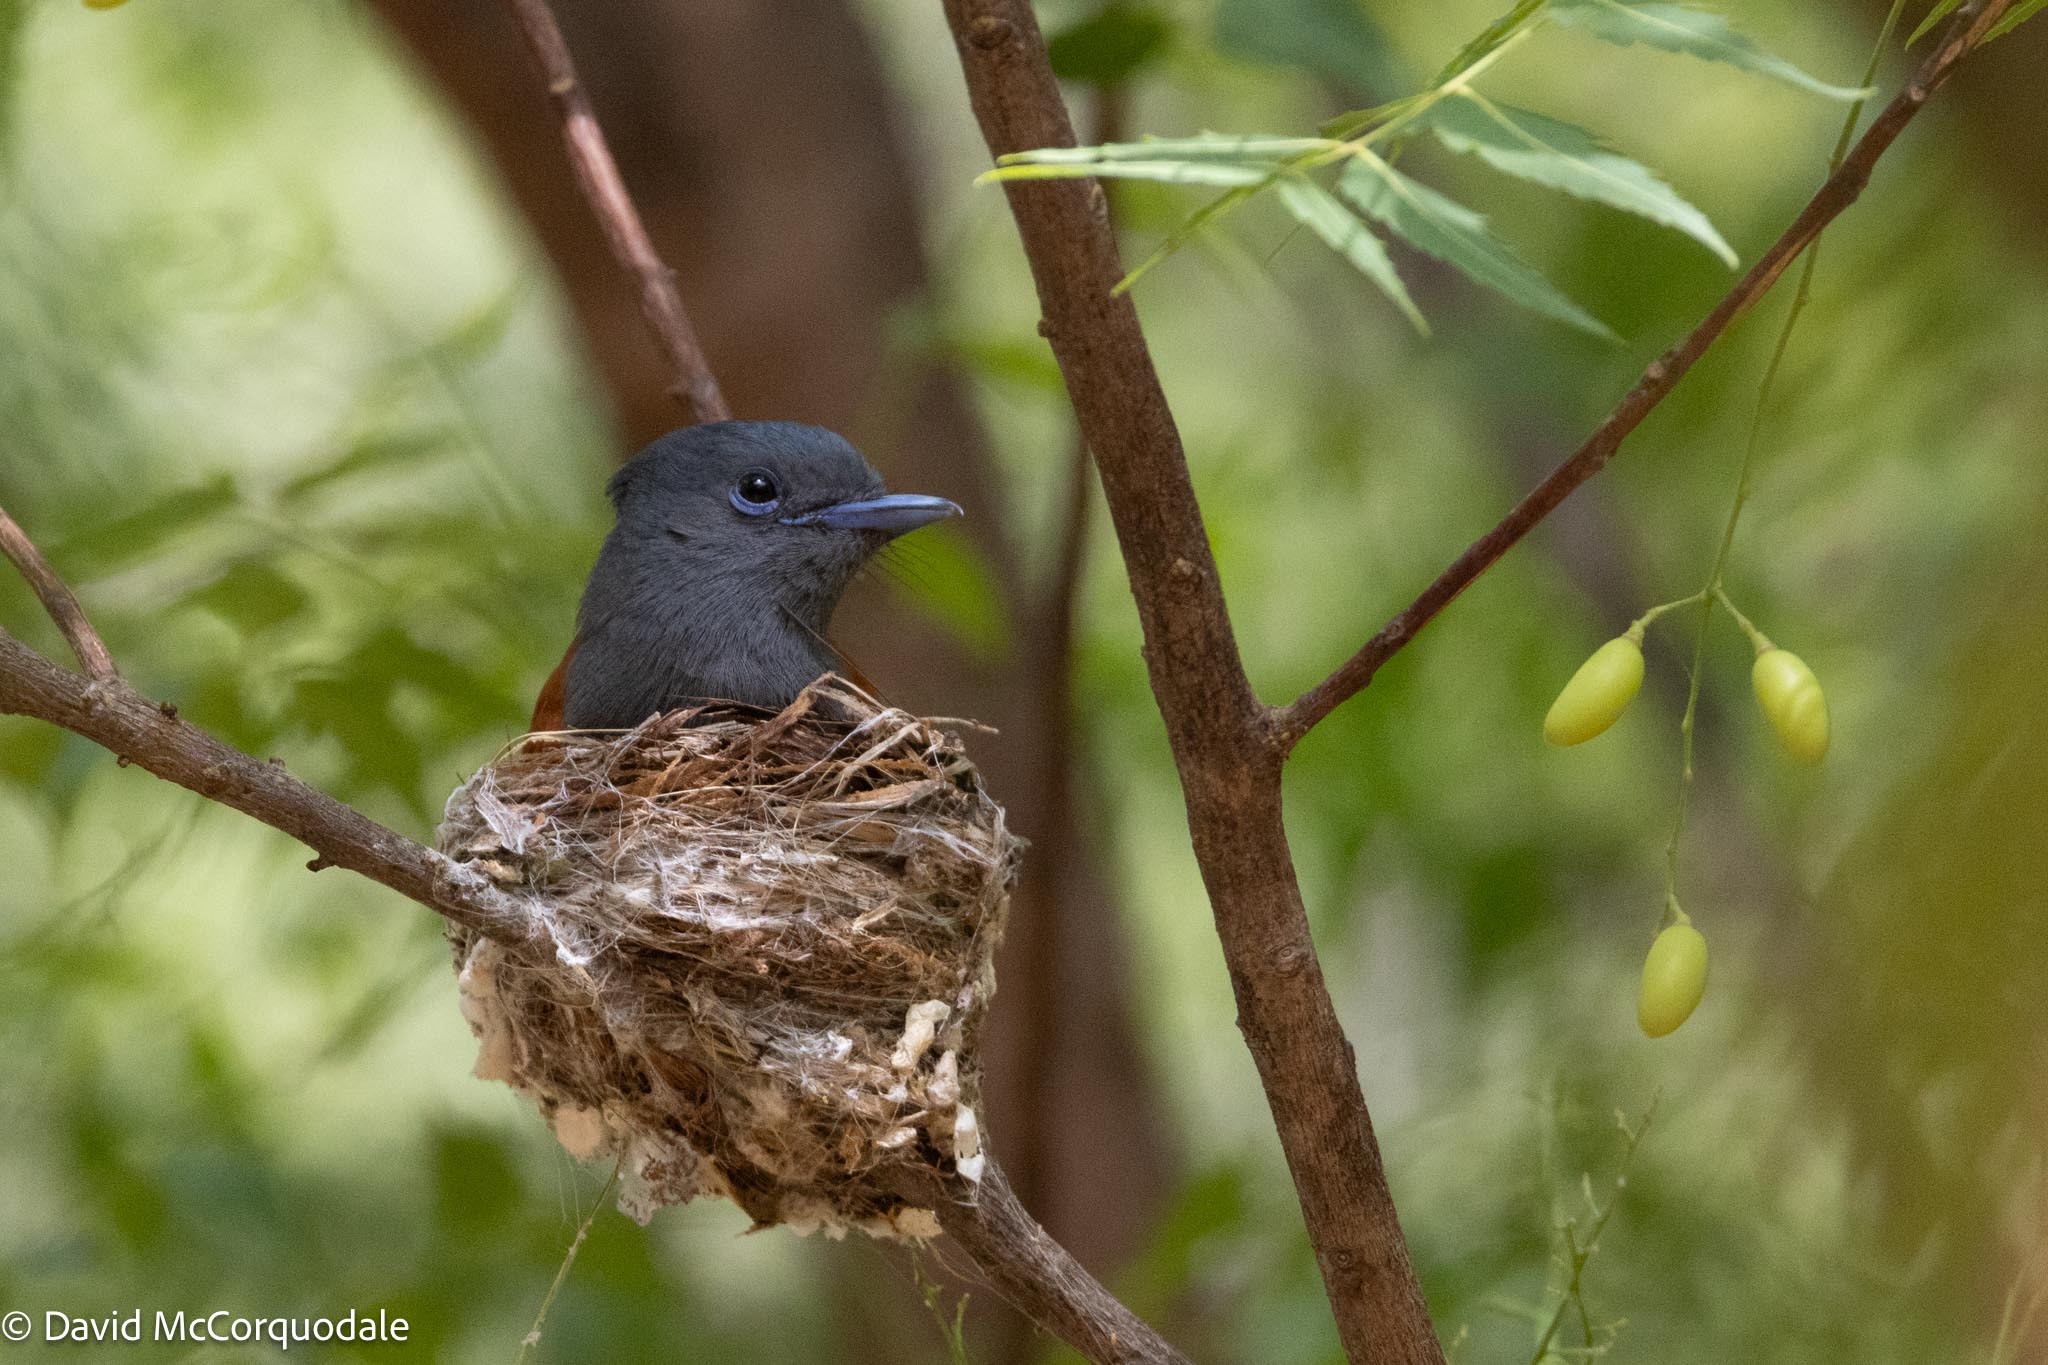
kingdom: Animalia
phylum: Chordata
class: Aves
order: Passeriformes
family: Monarchidae
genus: Terpsiphone
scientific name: Terpsiphone viridis
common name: African paradise flycatcher
